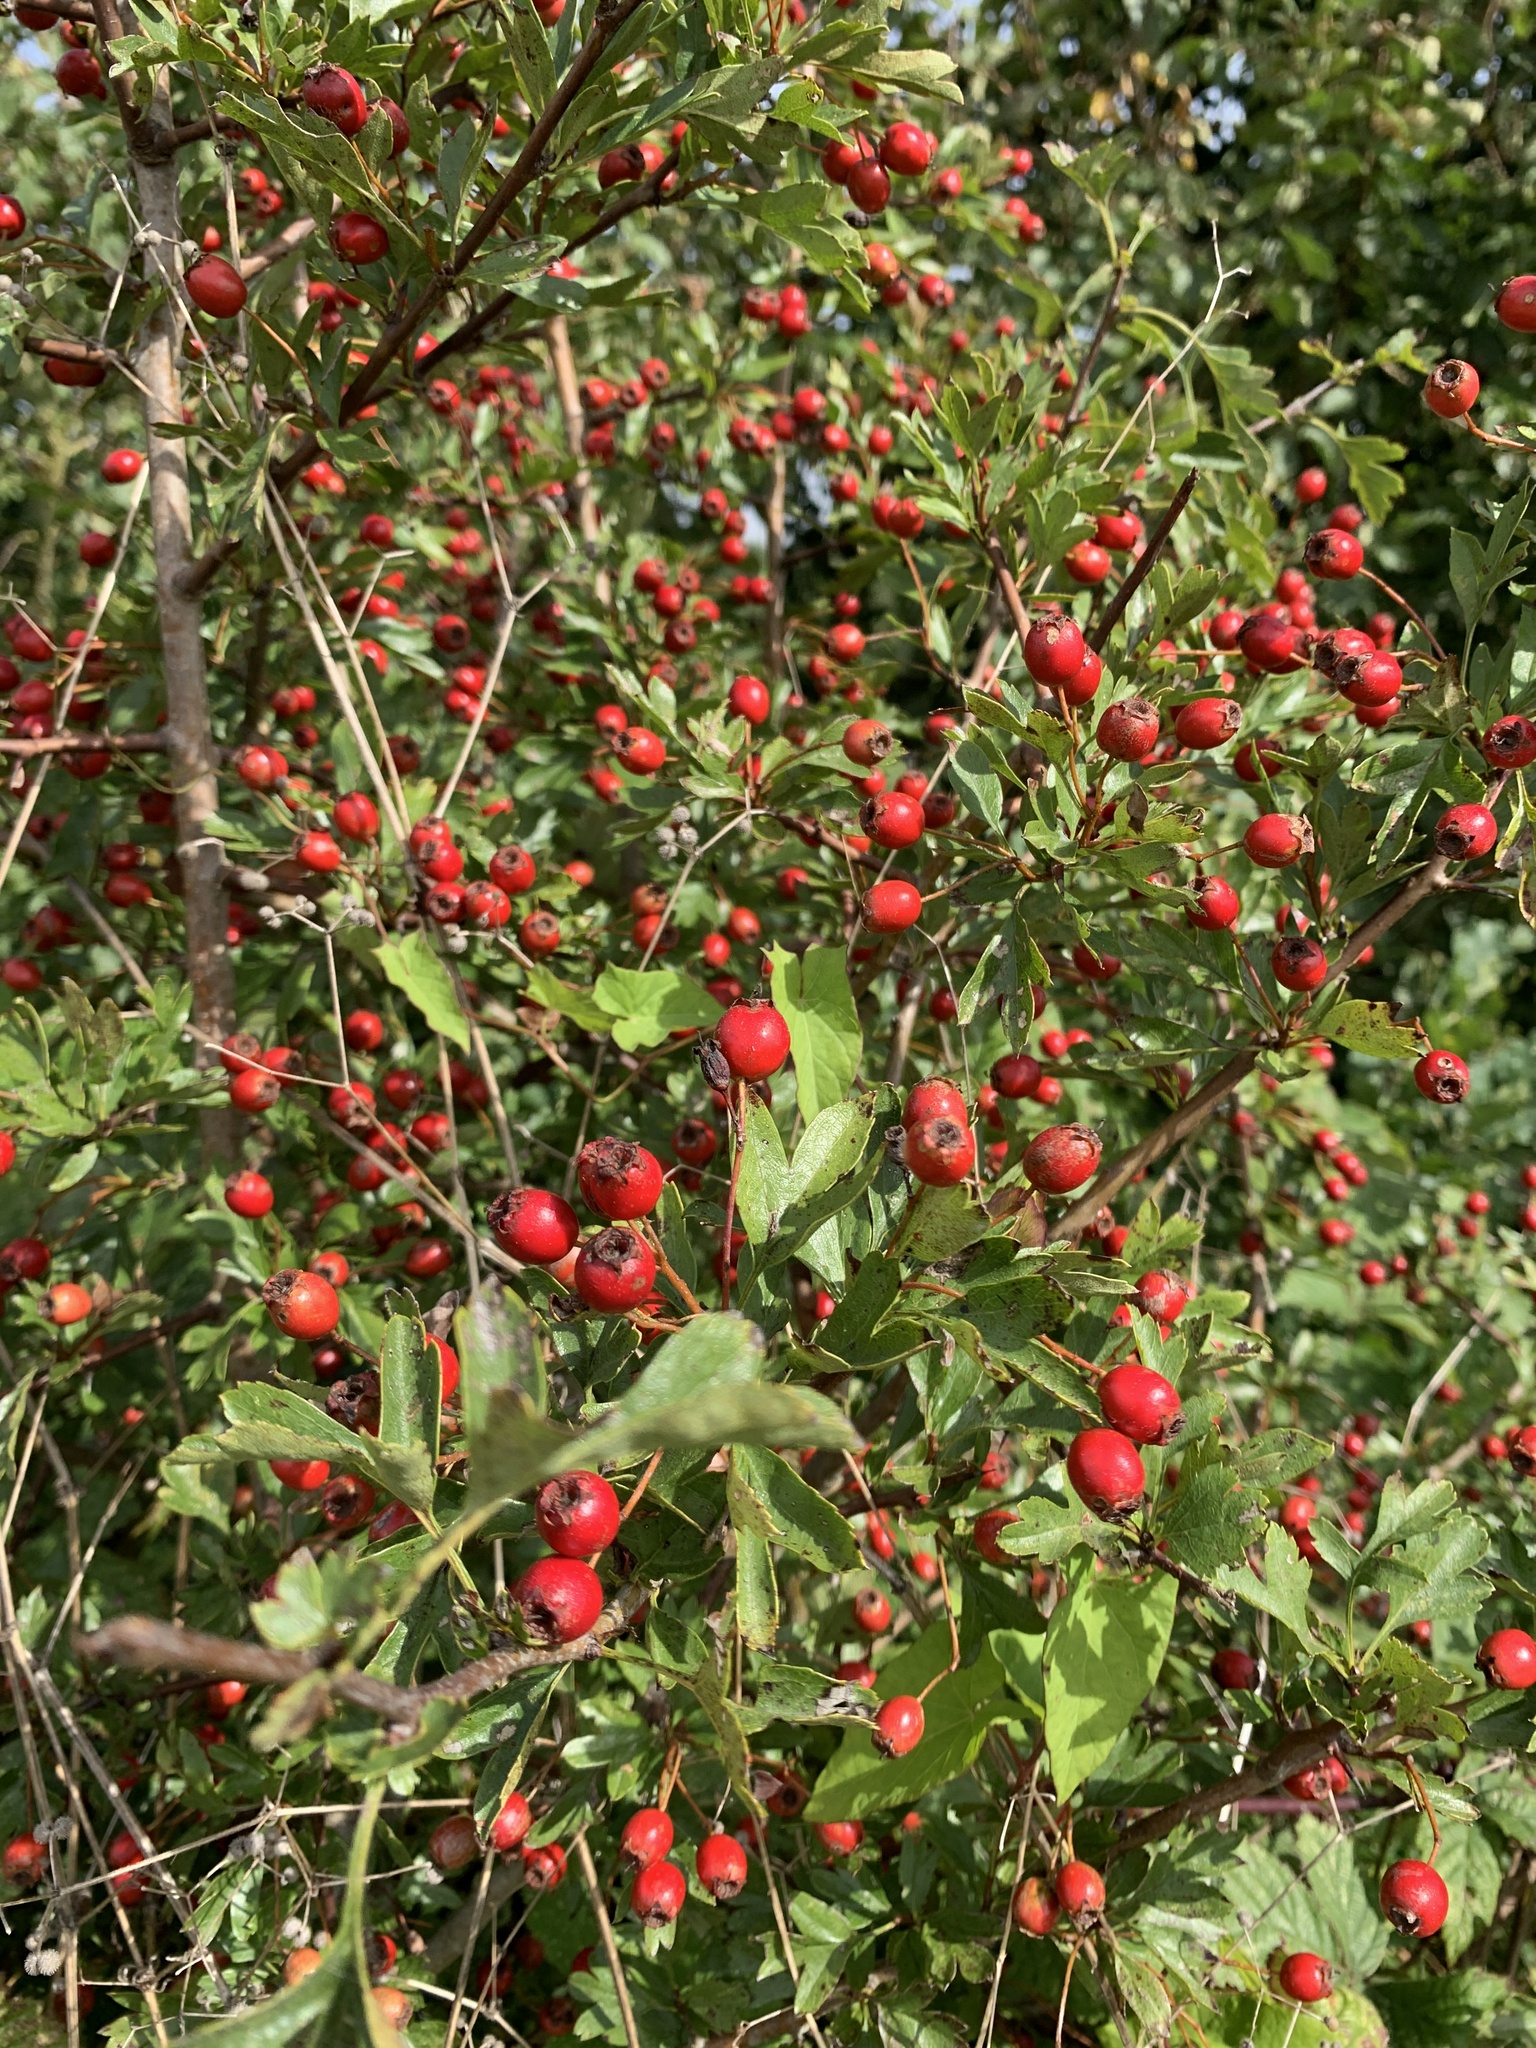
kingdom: Plantae
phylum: Tracheophyta
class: Magnoliopsida
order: Rosales
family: Rosaceae
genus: Crataegus
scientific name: Crataegus monogyna
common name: Hawthorn
